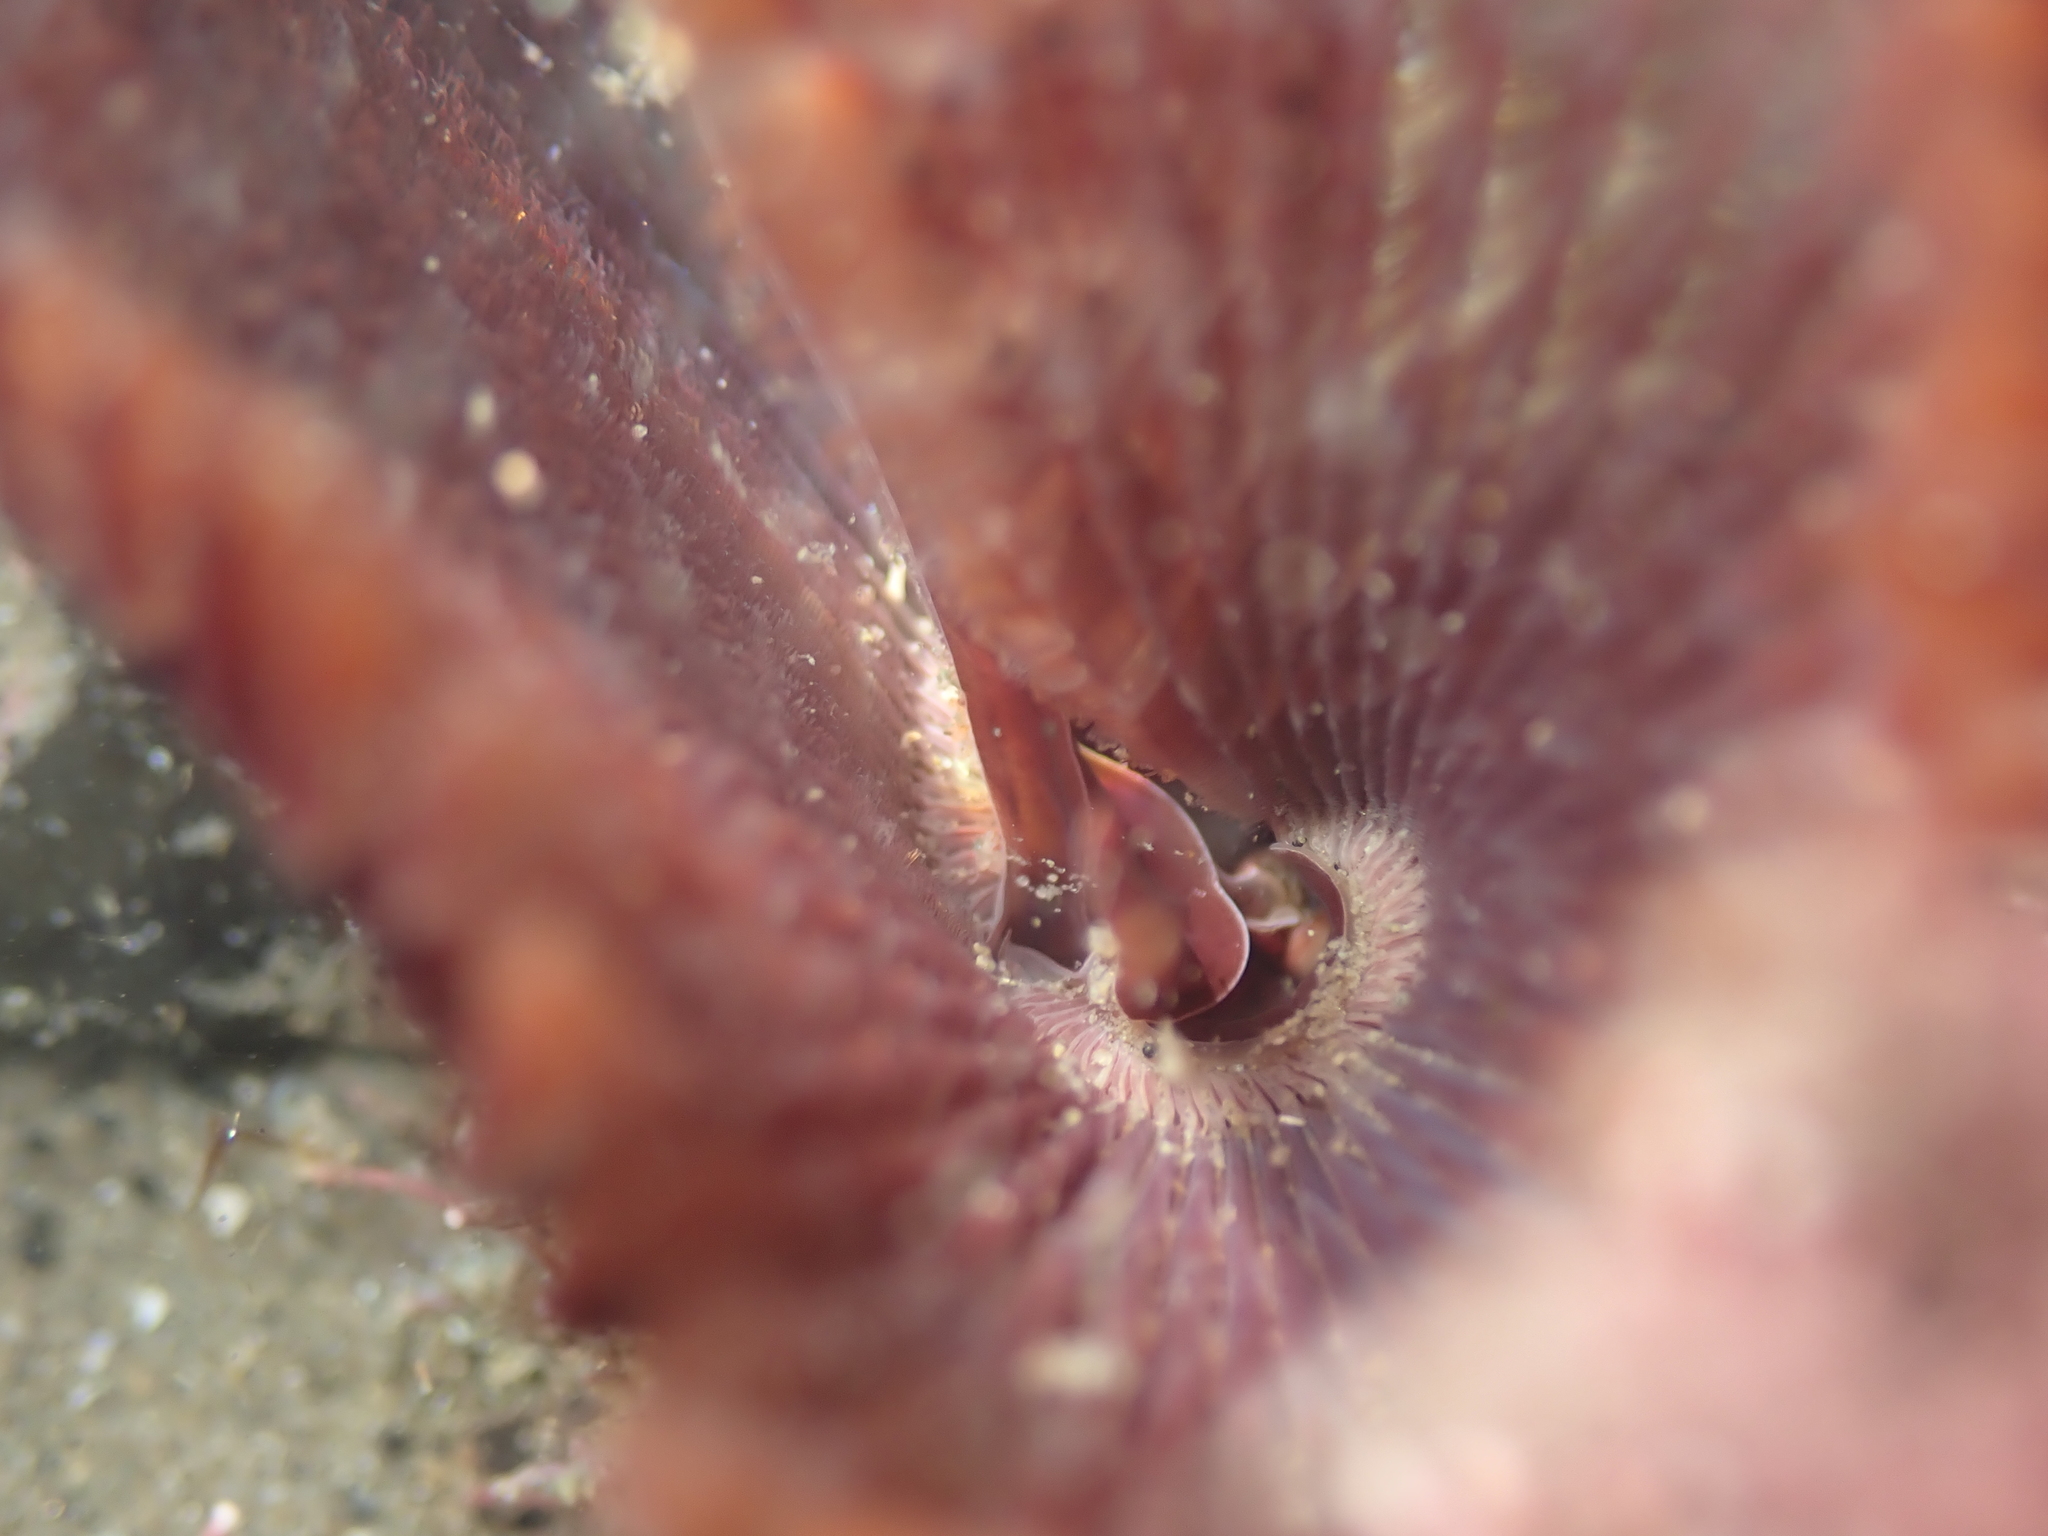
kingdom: Animalia
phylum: Annelida
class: Polychaeta
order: Sabellida
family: Sabellidae
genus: Pseudobranchiomma
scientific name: Pseudobranchiomma grandis
